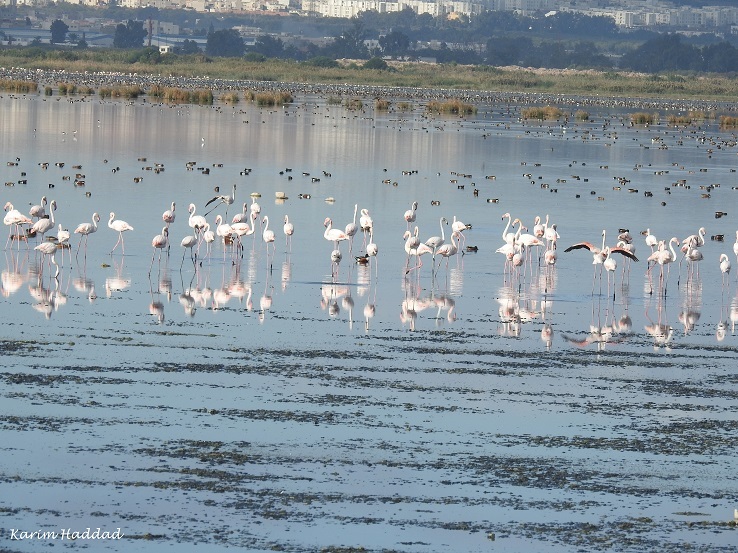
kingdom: Animalia
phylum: Chordata
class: Aves
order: Phoenicopteriformes
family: Phoenicopteridae
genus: Phoenicopterus
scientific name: Phoenicopterus roseus
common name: Greater flamingo
